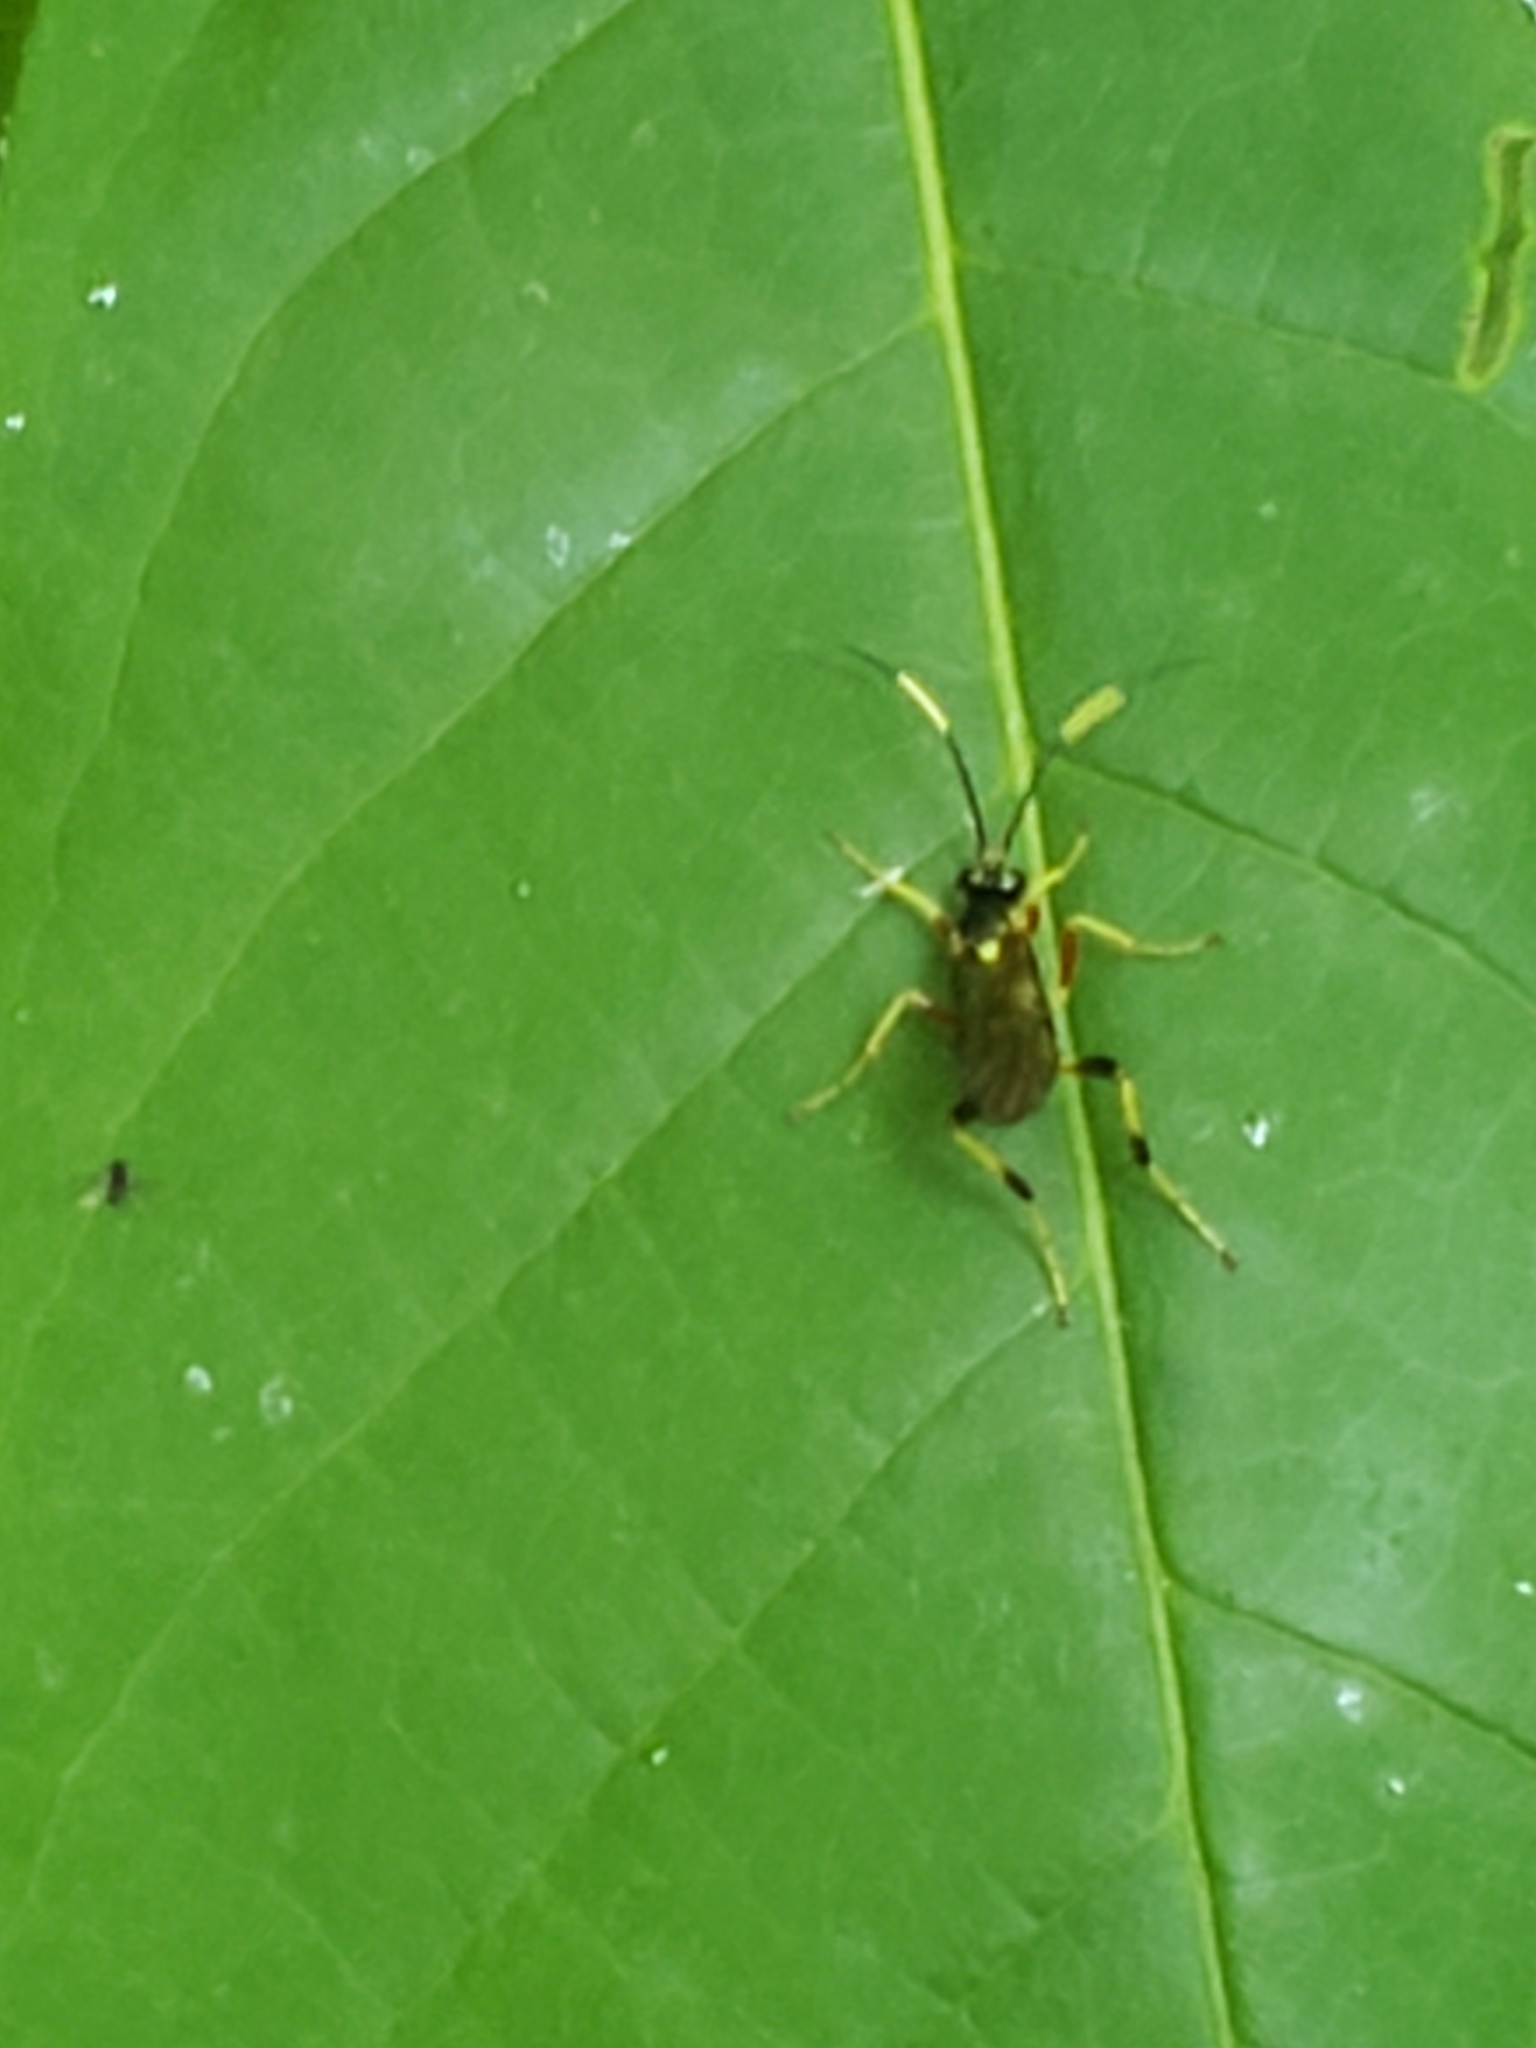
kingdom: Animalia
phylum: Arthropoda
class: Insecta
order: Hymenoptera
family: Ichneumonidae
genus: Polytribax
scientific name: Polytribax contiguus
